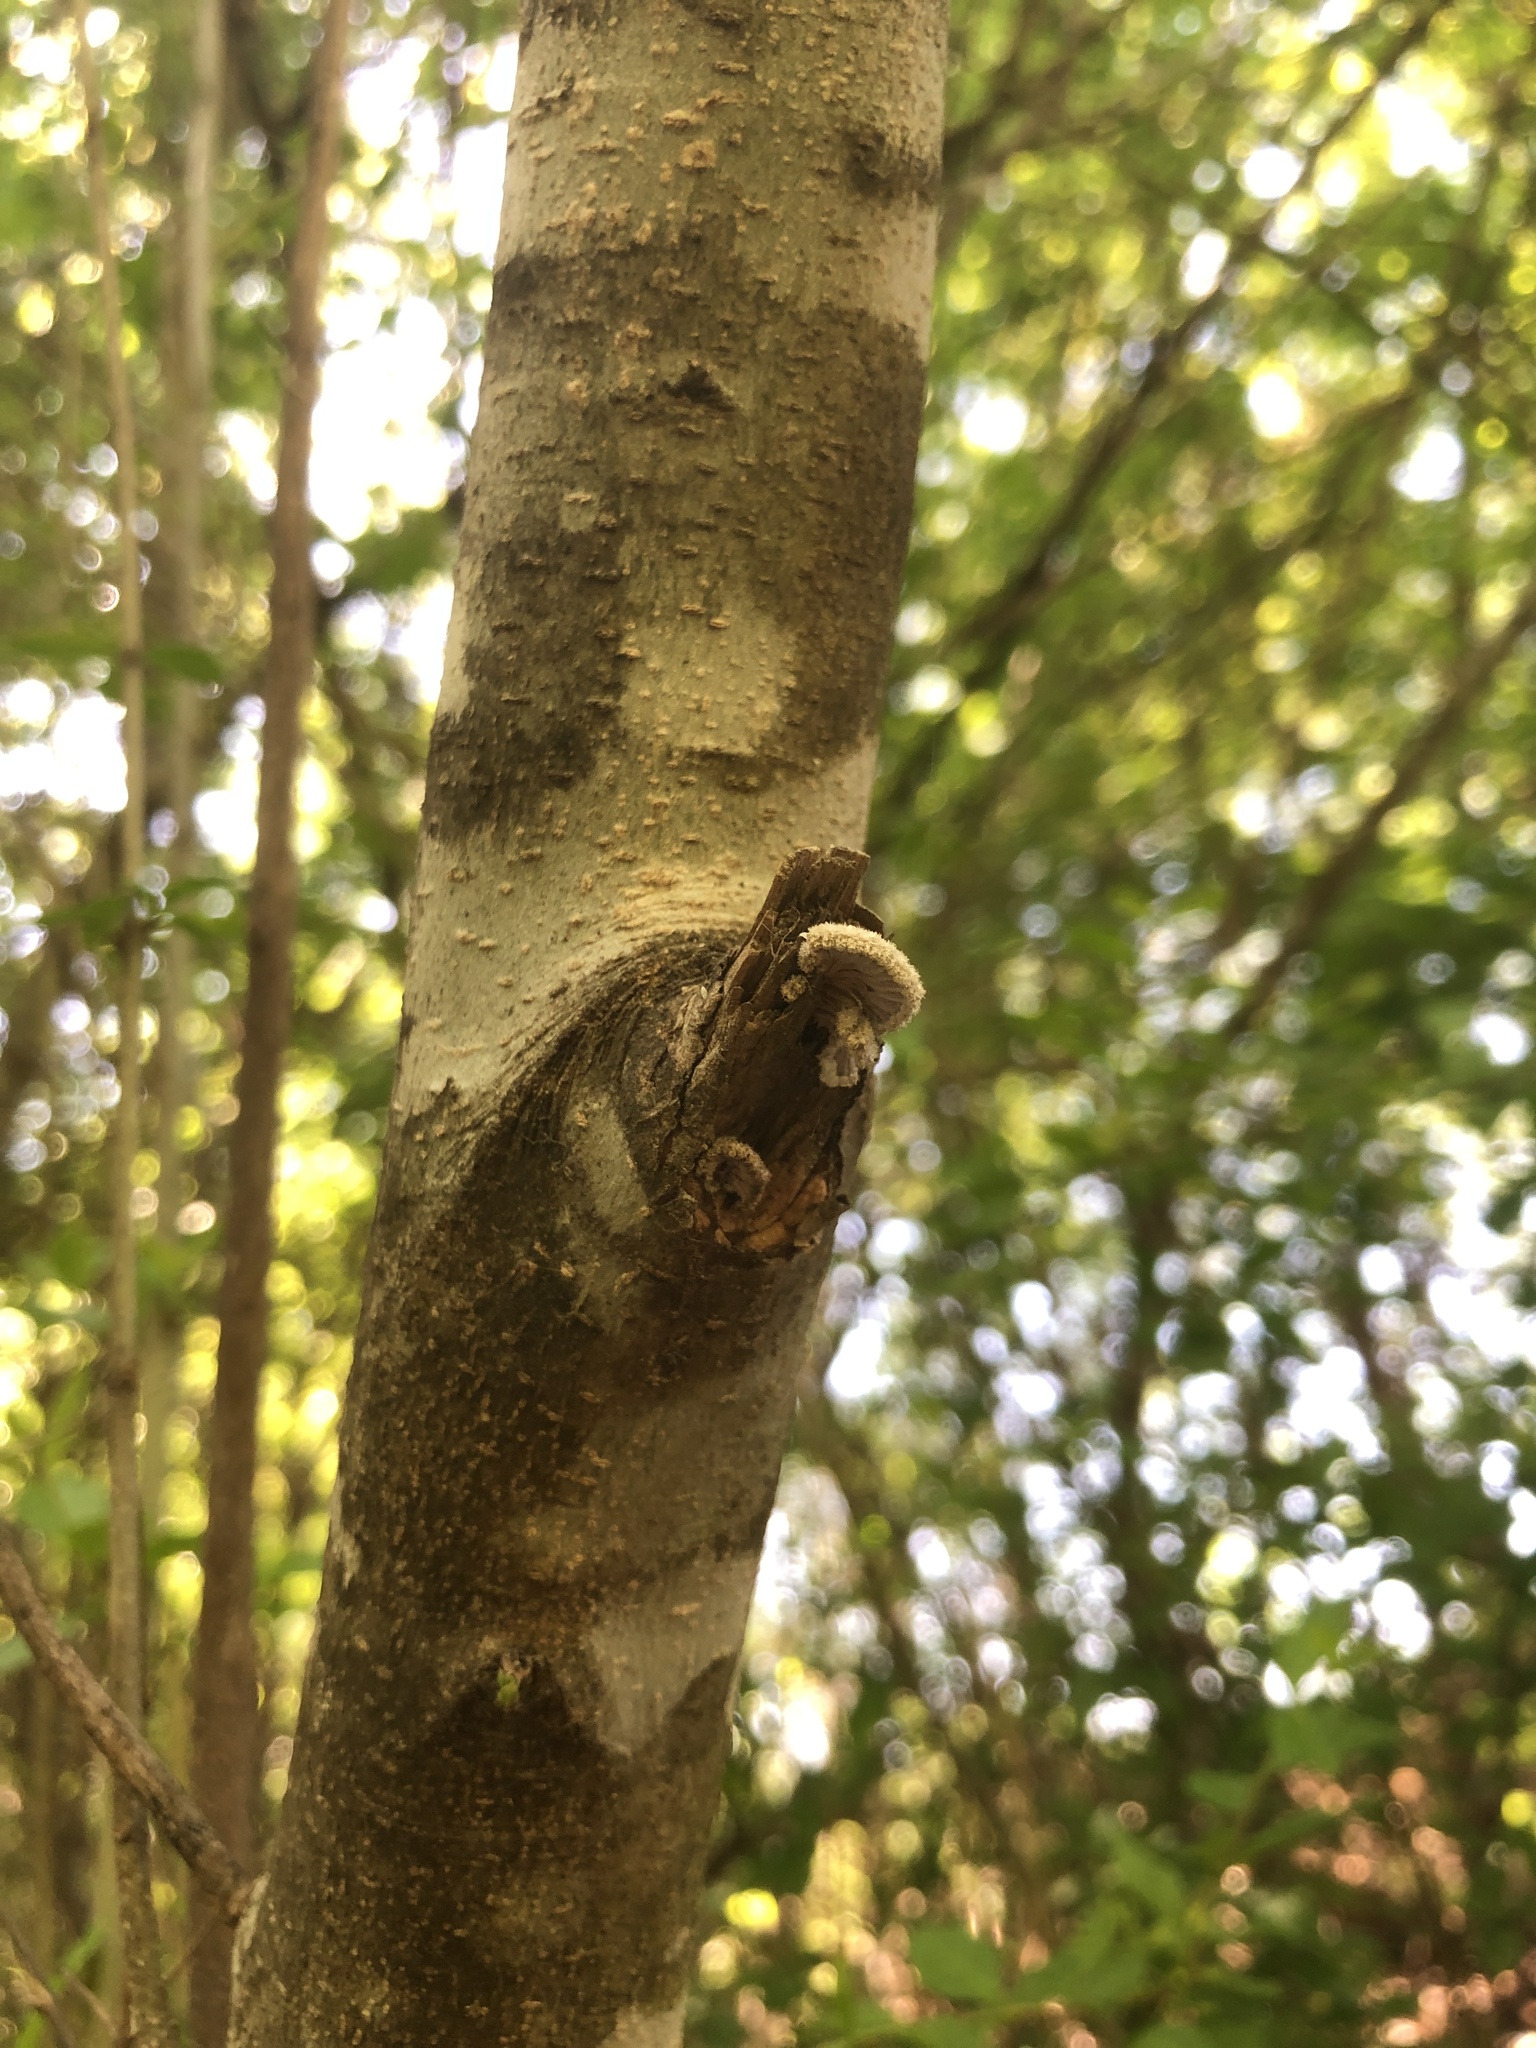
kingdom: Fungi
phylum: Basidiomycota
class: Agaricomycetes
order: Agaricales
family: Schizophyllaceae
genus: Schizophyllum
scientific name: Schizophyllum commune
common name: Common porecrust
